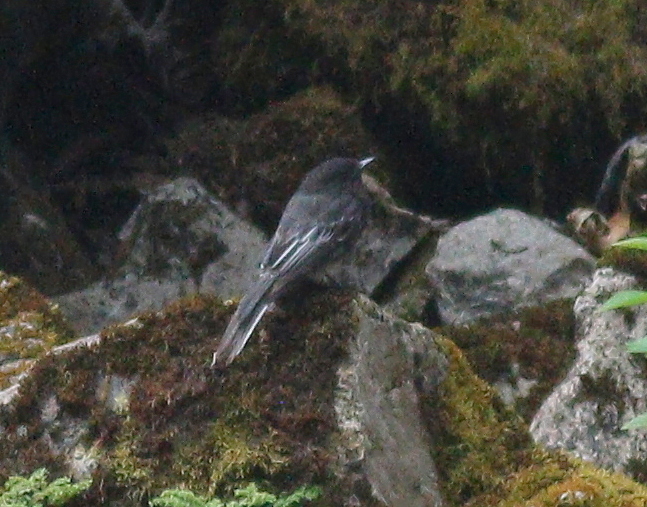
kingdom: Animalia
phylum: Chordata
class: Aves
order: Passeriformes
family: Tyrannidae
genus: Sayornis
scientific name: Sayornis nigricans
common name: Black phoebe
